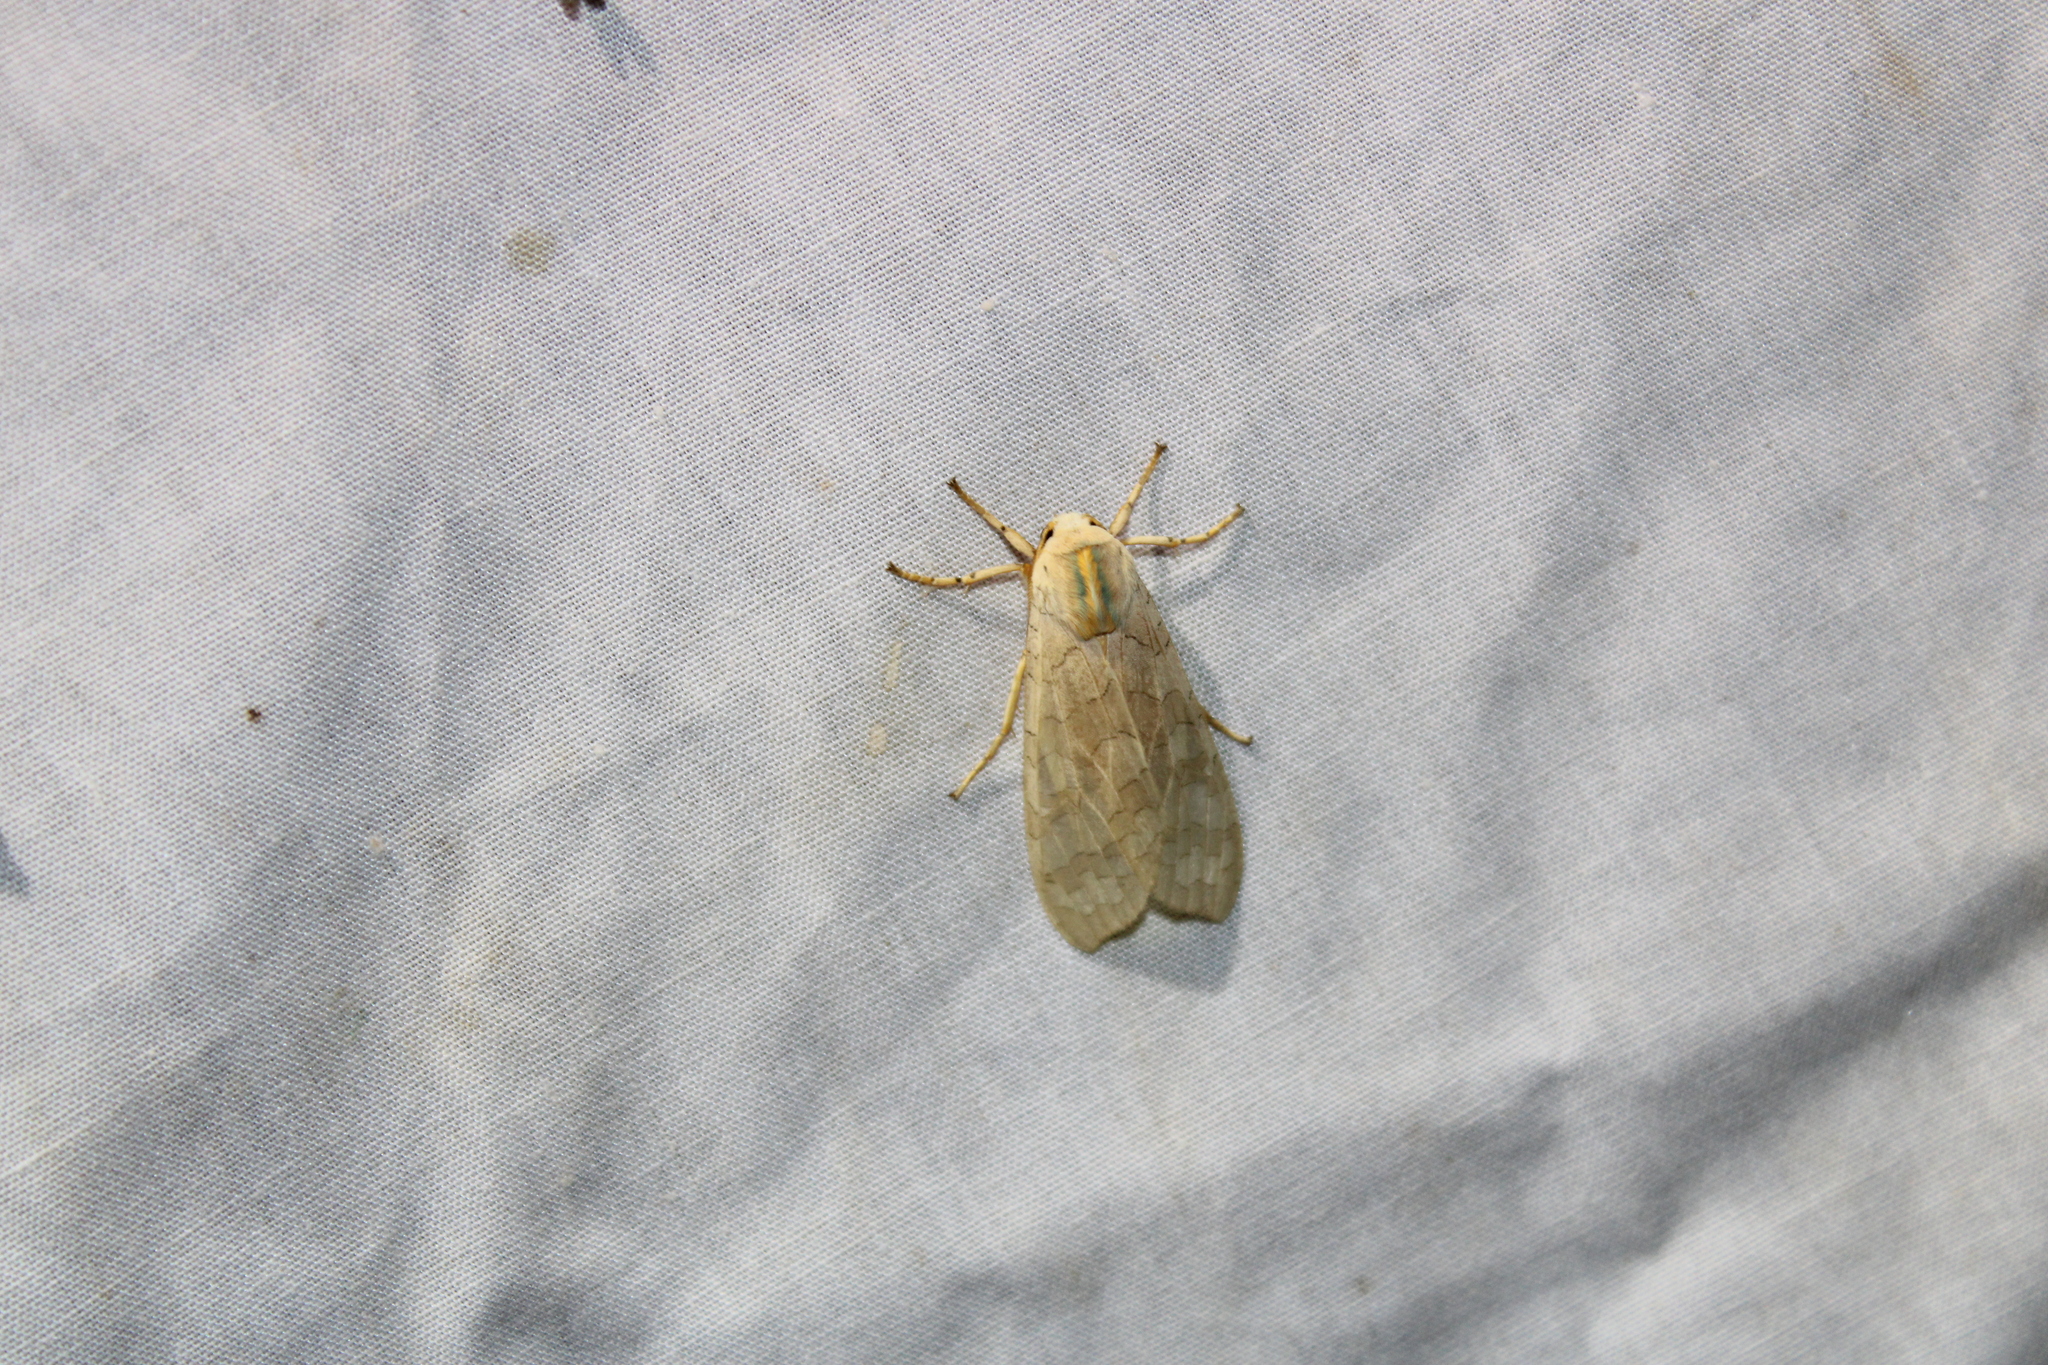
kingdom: Animalia
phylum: Arthropoda
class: Insecta
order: Lepidoptera
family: Erebidae
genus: Halysidota
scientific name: Halysidota
